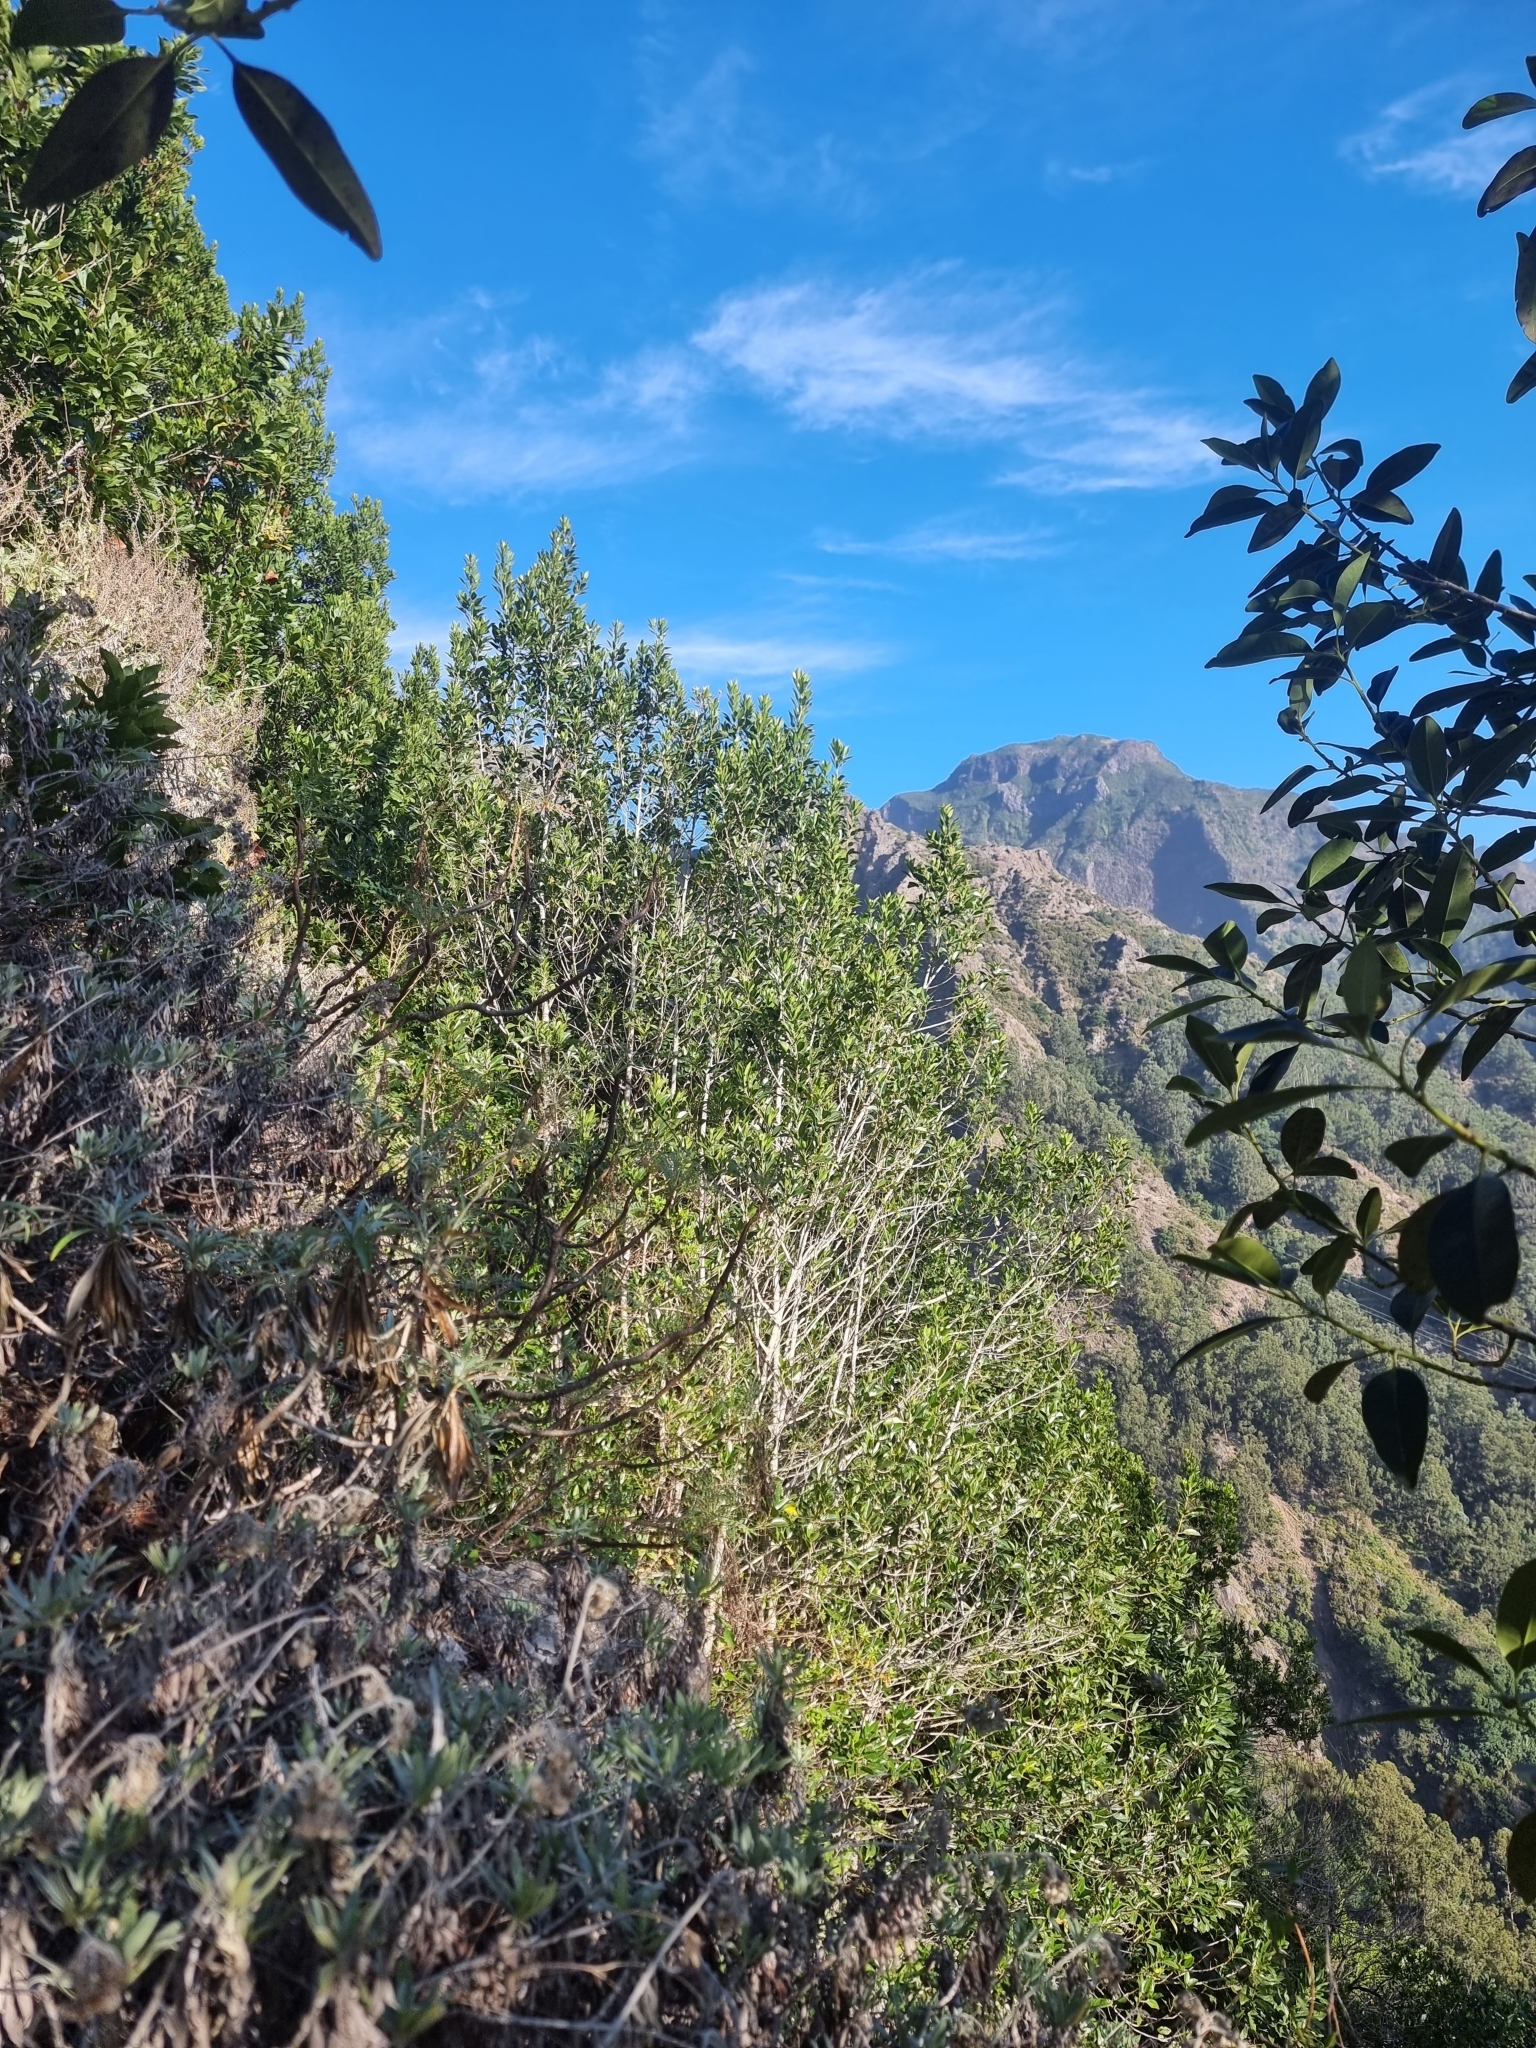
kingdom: Plantae
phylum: Tracheophyta
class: Magnoliopsida
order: Aquifoliales
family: Aquifoliaceae
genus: Ilex
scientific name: Ilex canariensis
